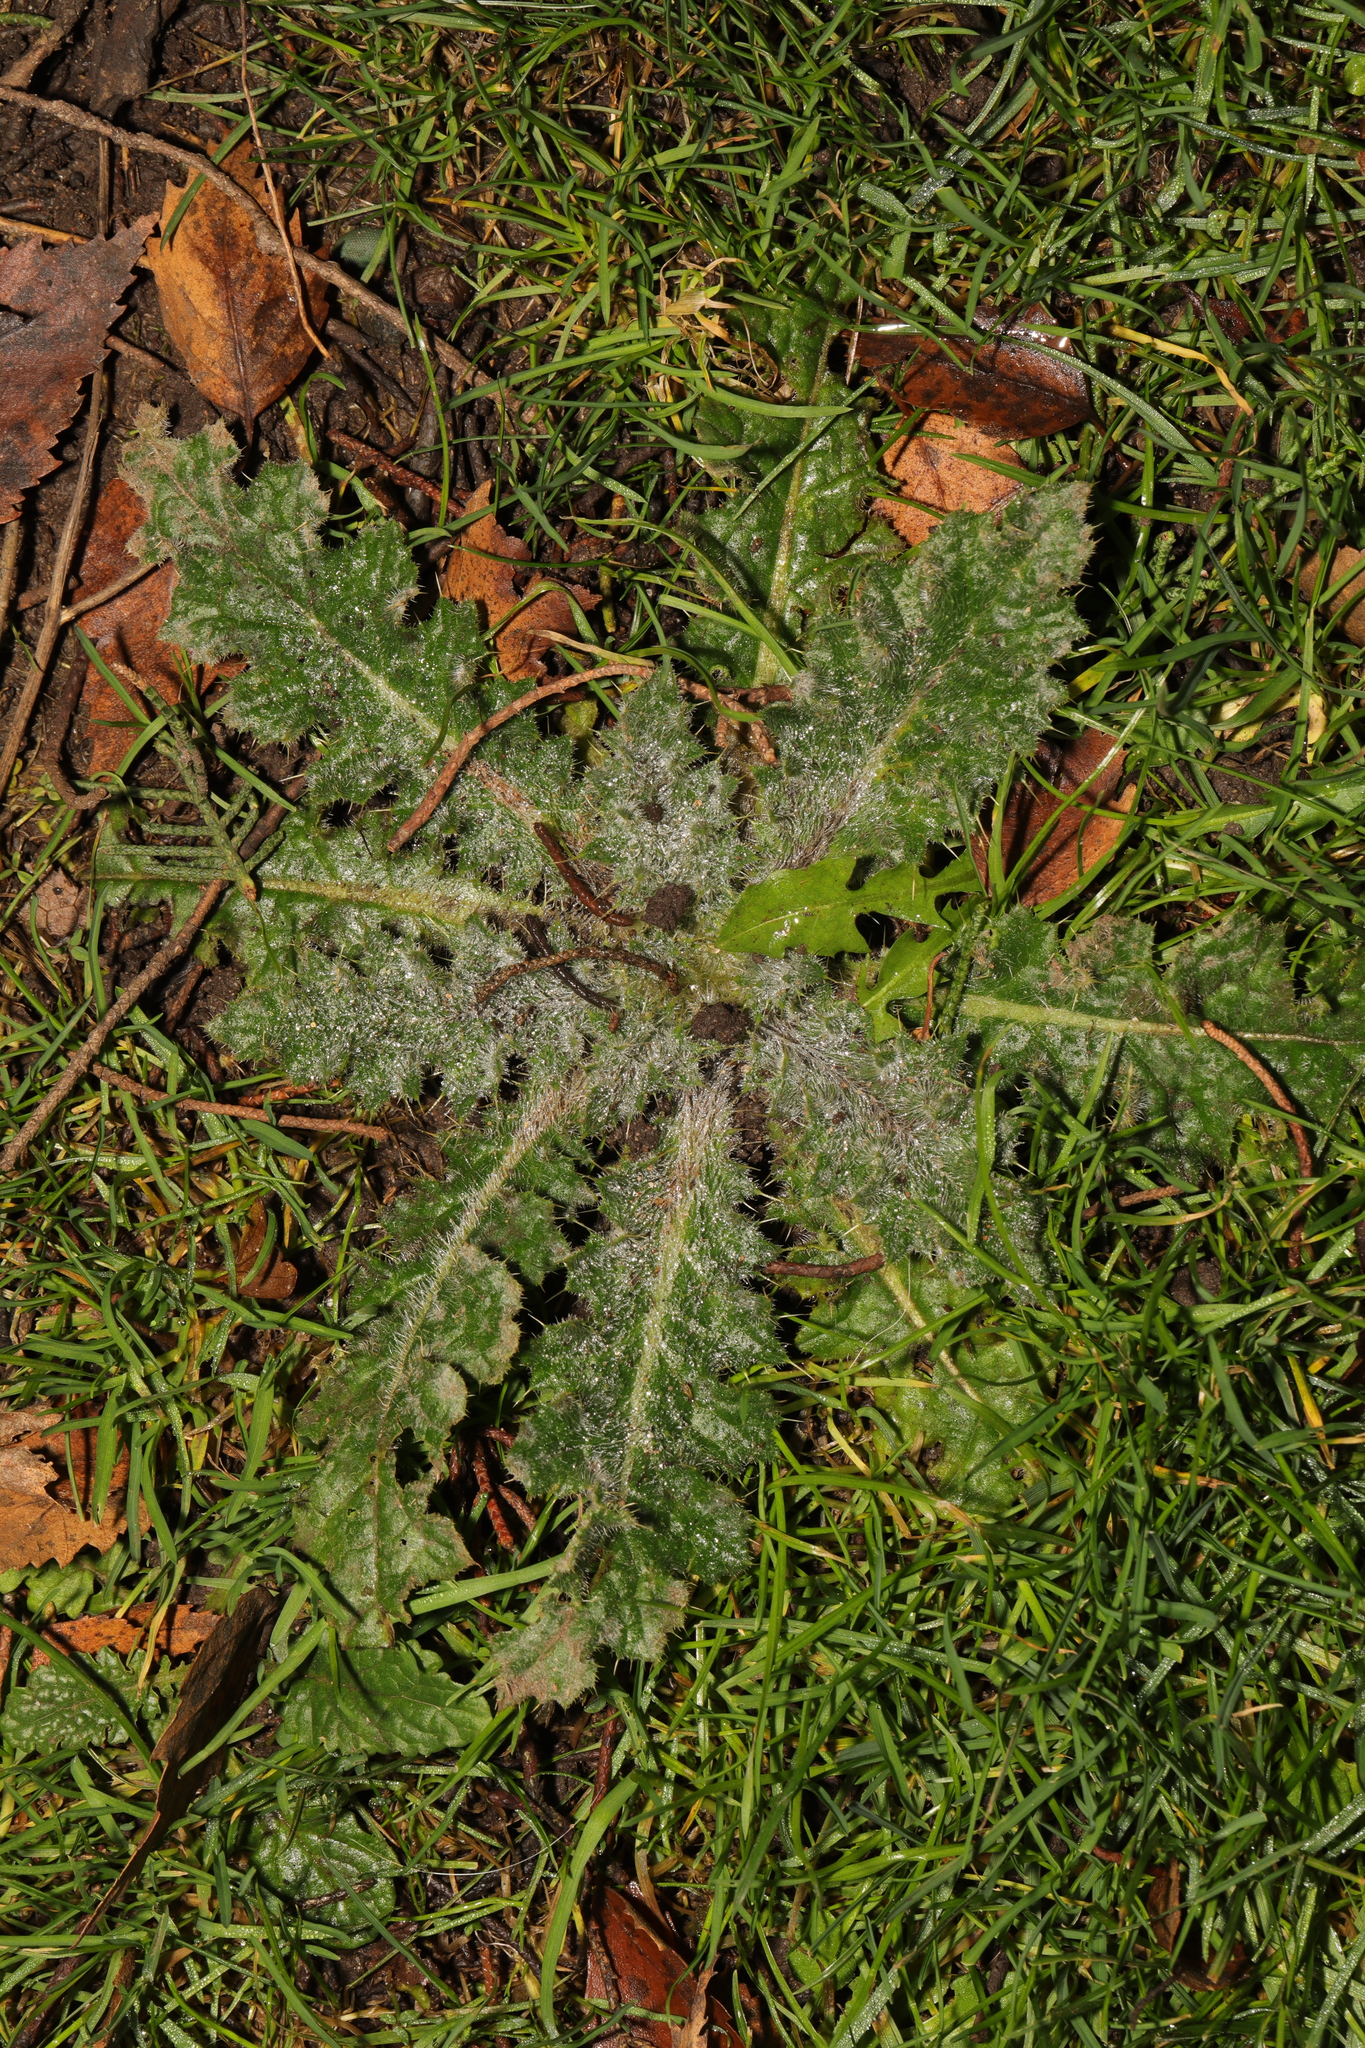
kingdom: Plantae
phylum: Tracheophyta
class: Magnoliopsida
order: Asterales
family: Asteraceae
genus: Cirsium
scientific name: Cirsium vulgare
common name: Bull thistle
